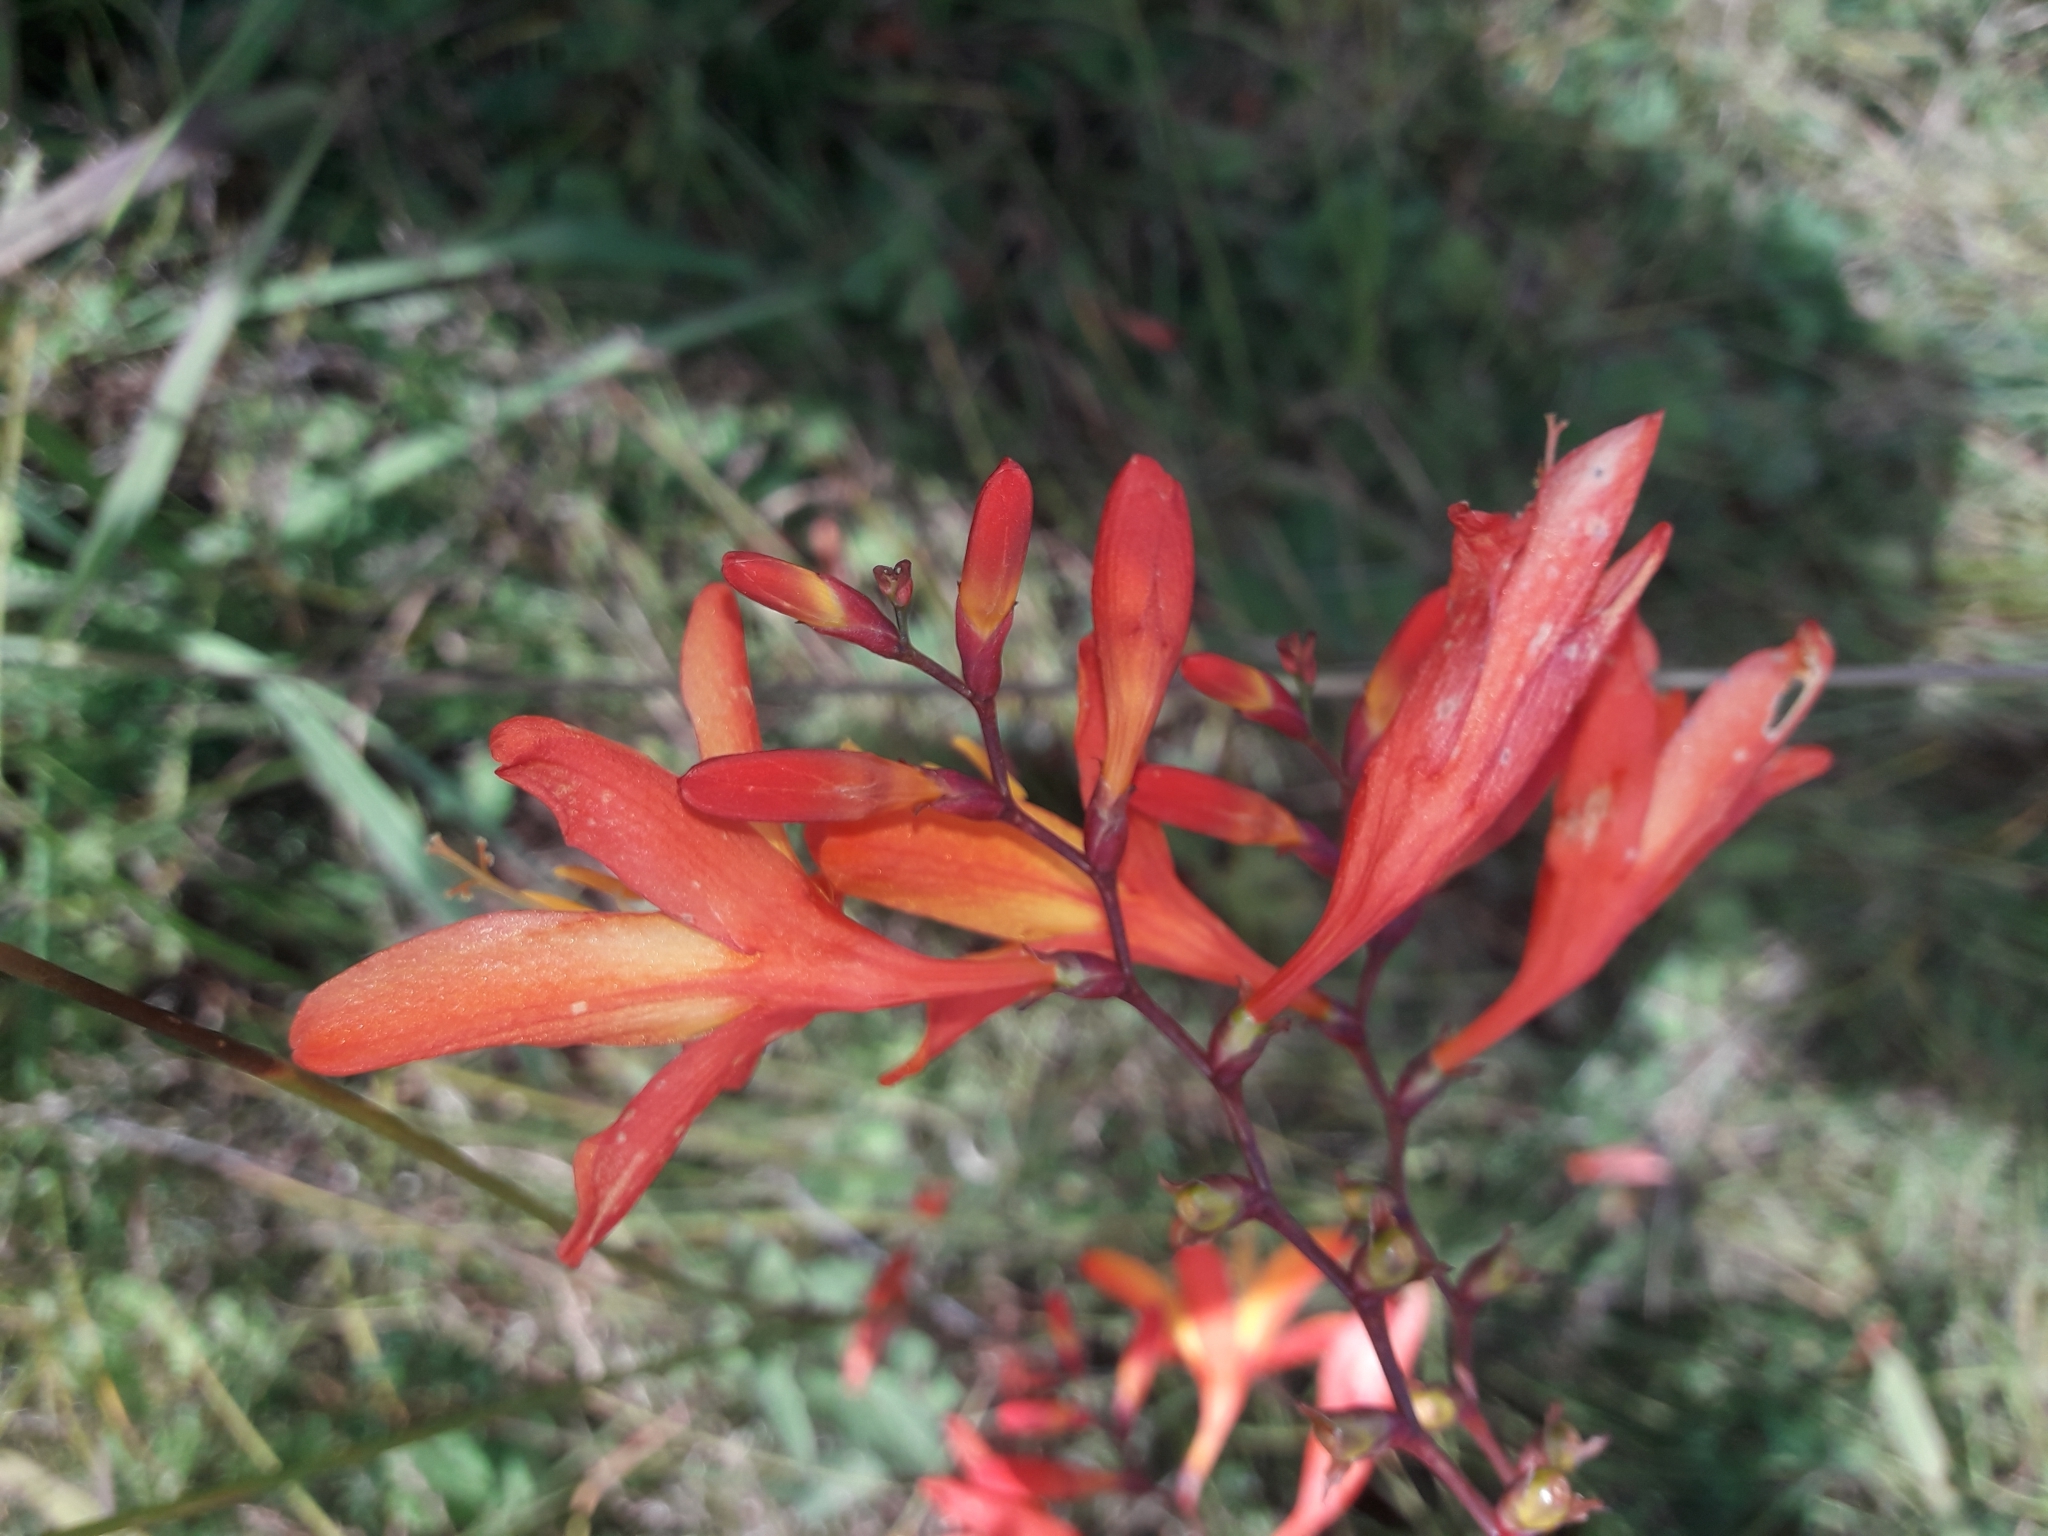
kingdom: Plantae
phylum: Tracheophyta
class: Liliopsida
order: Asparagales
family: Iridaceae
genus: Crocosmia
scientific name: Crocosmia crocosmiiflora
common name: Montbretia
